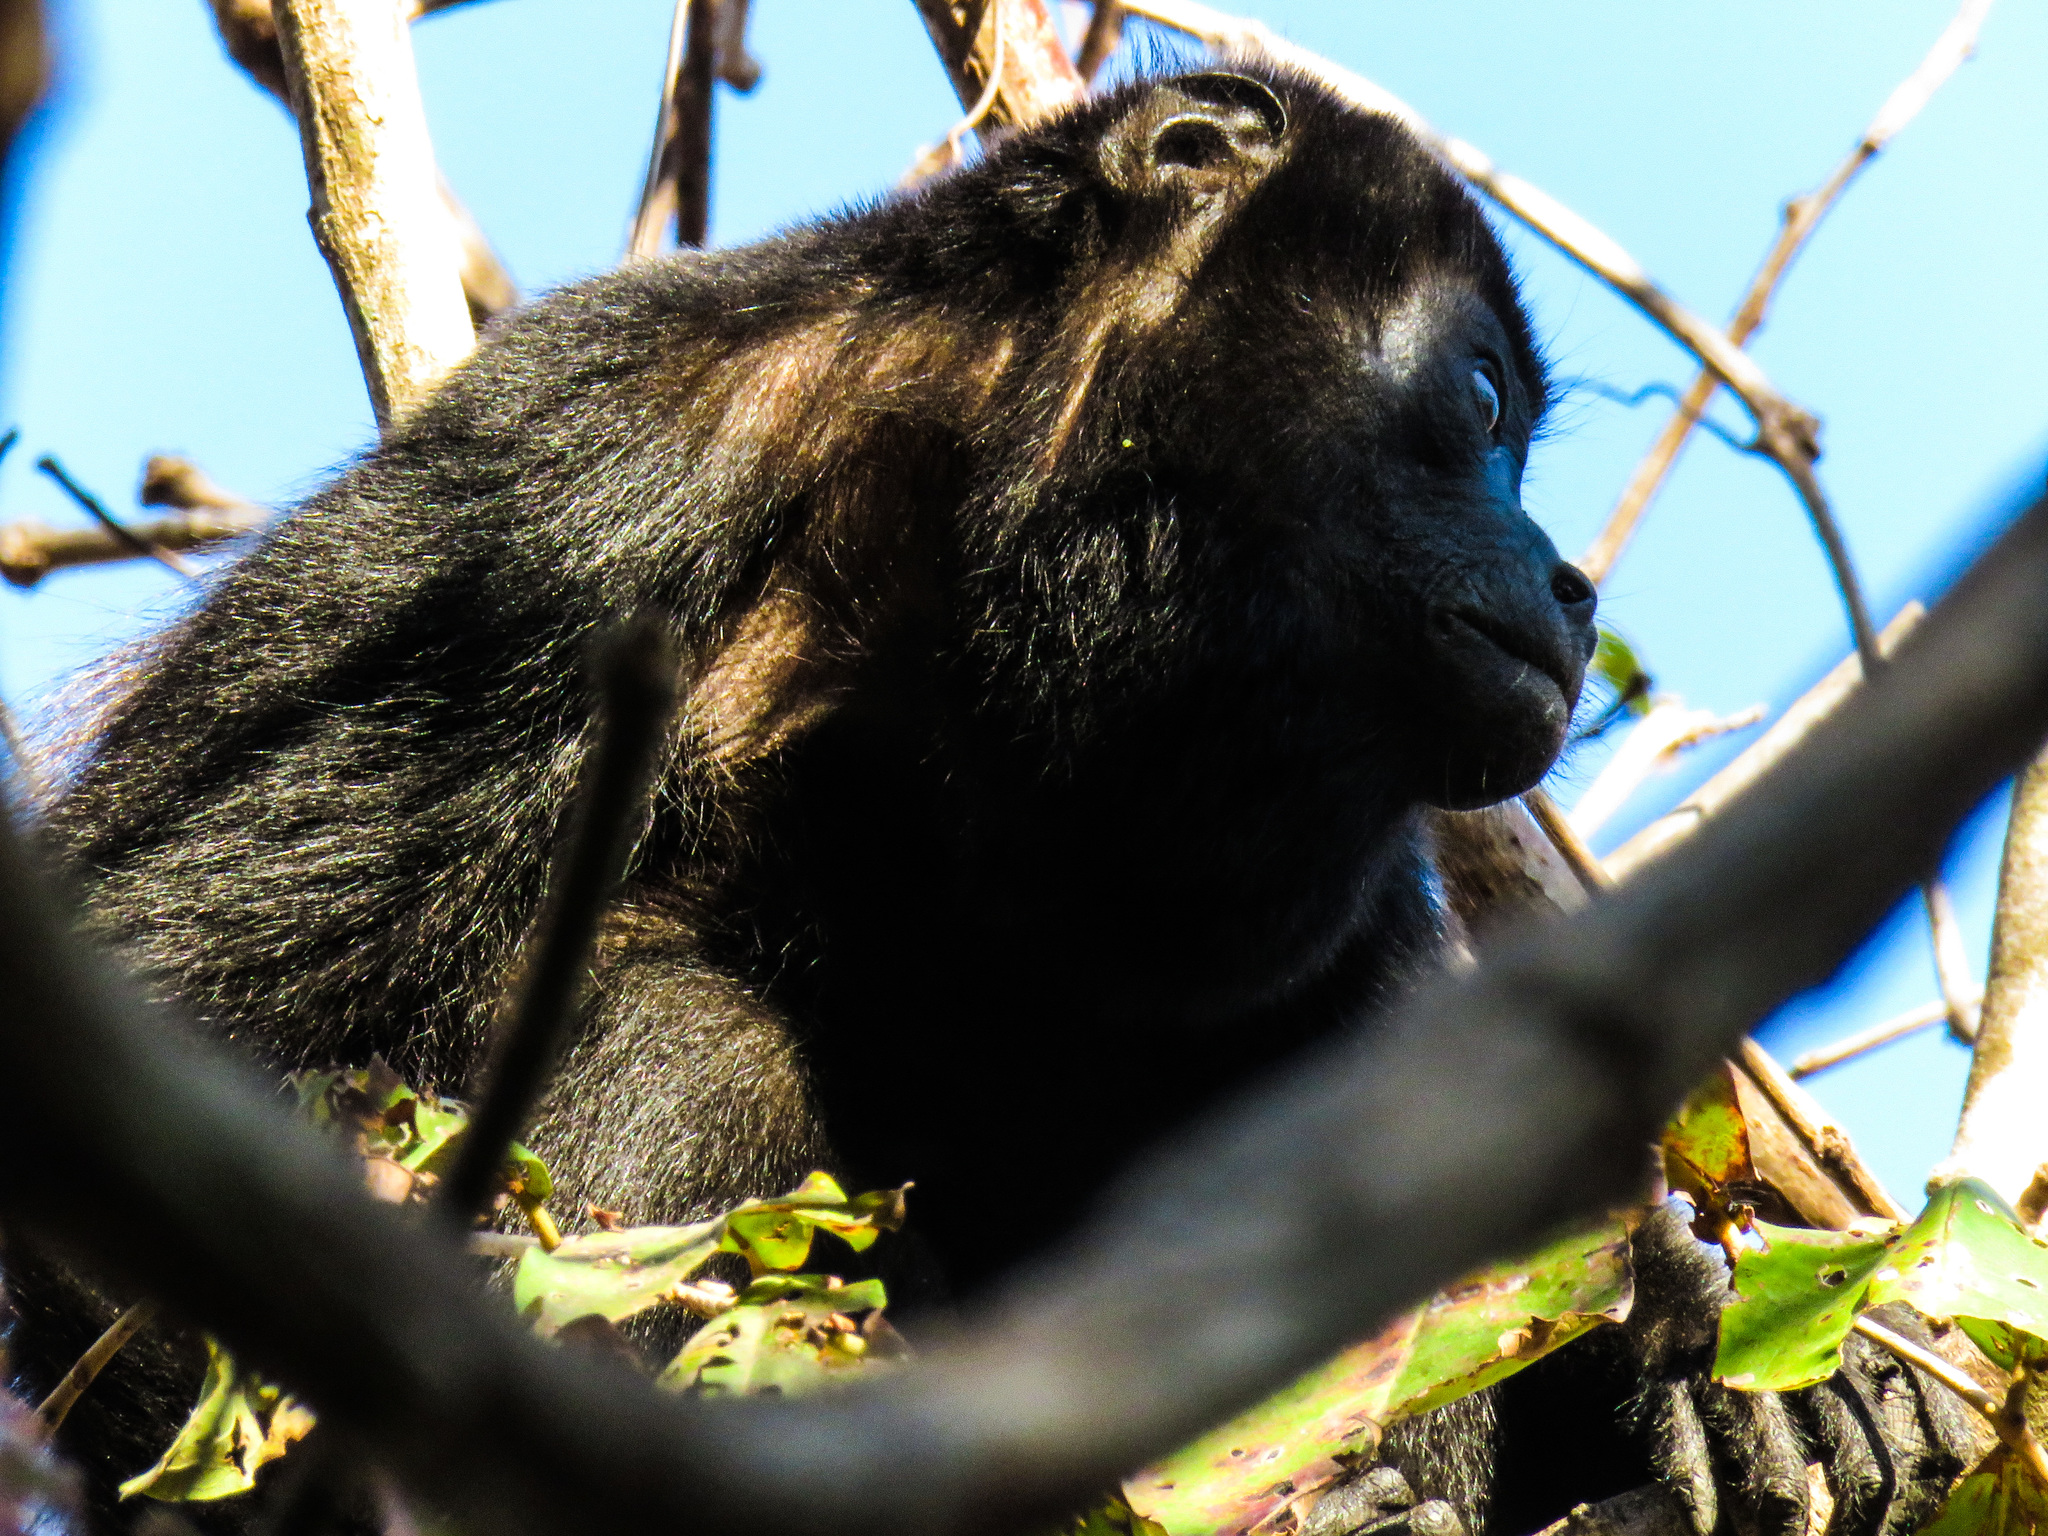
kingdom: Animalia
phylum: Chordata
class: Mammalia
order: Primates
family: Atelidae
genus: Alouatta
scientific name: Alouatta palliata
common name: Mantled howler
